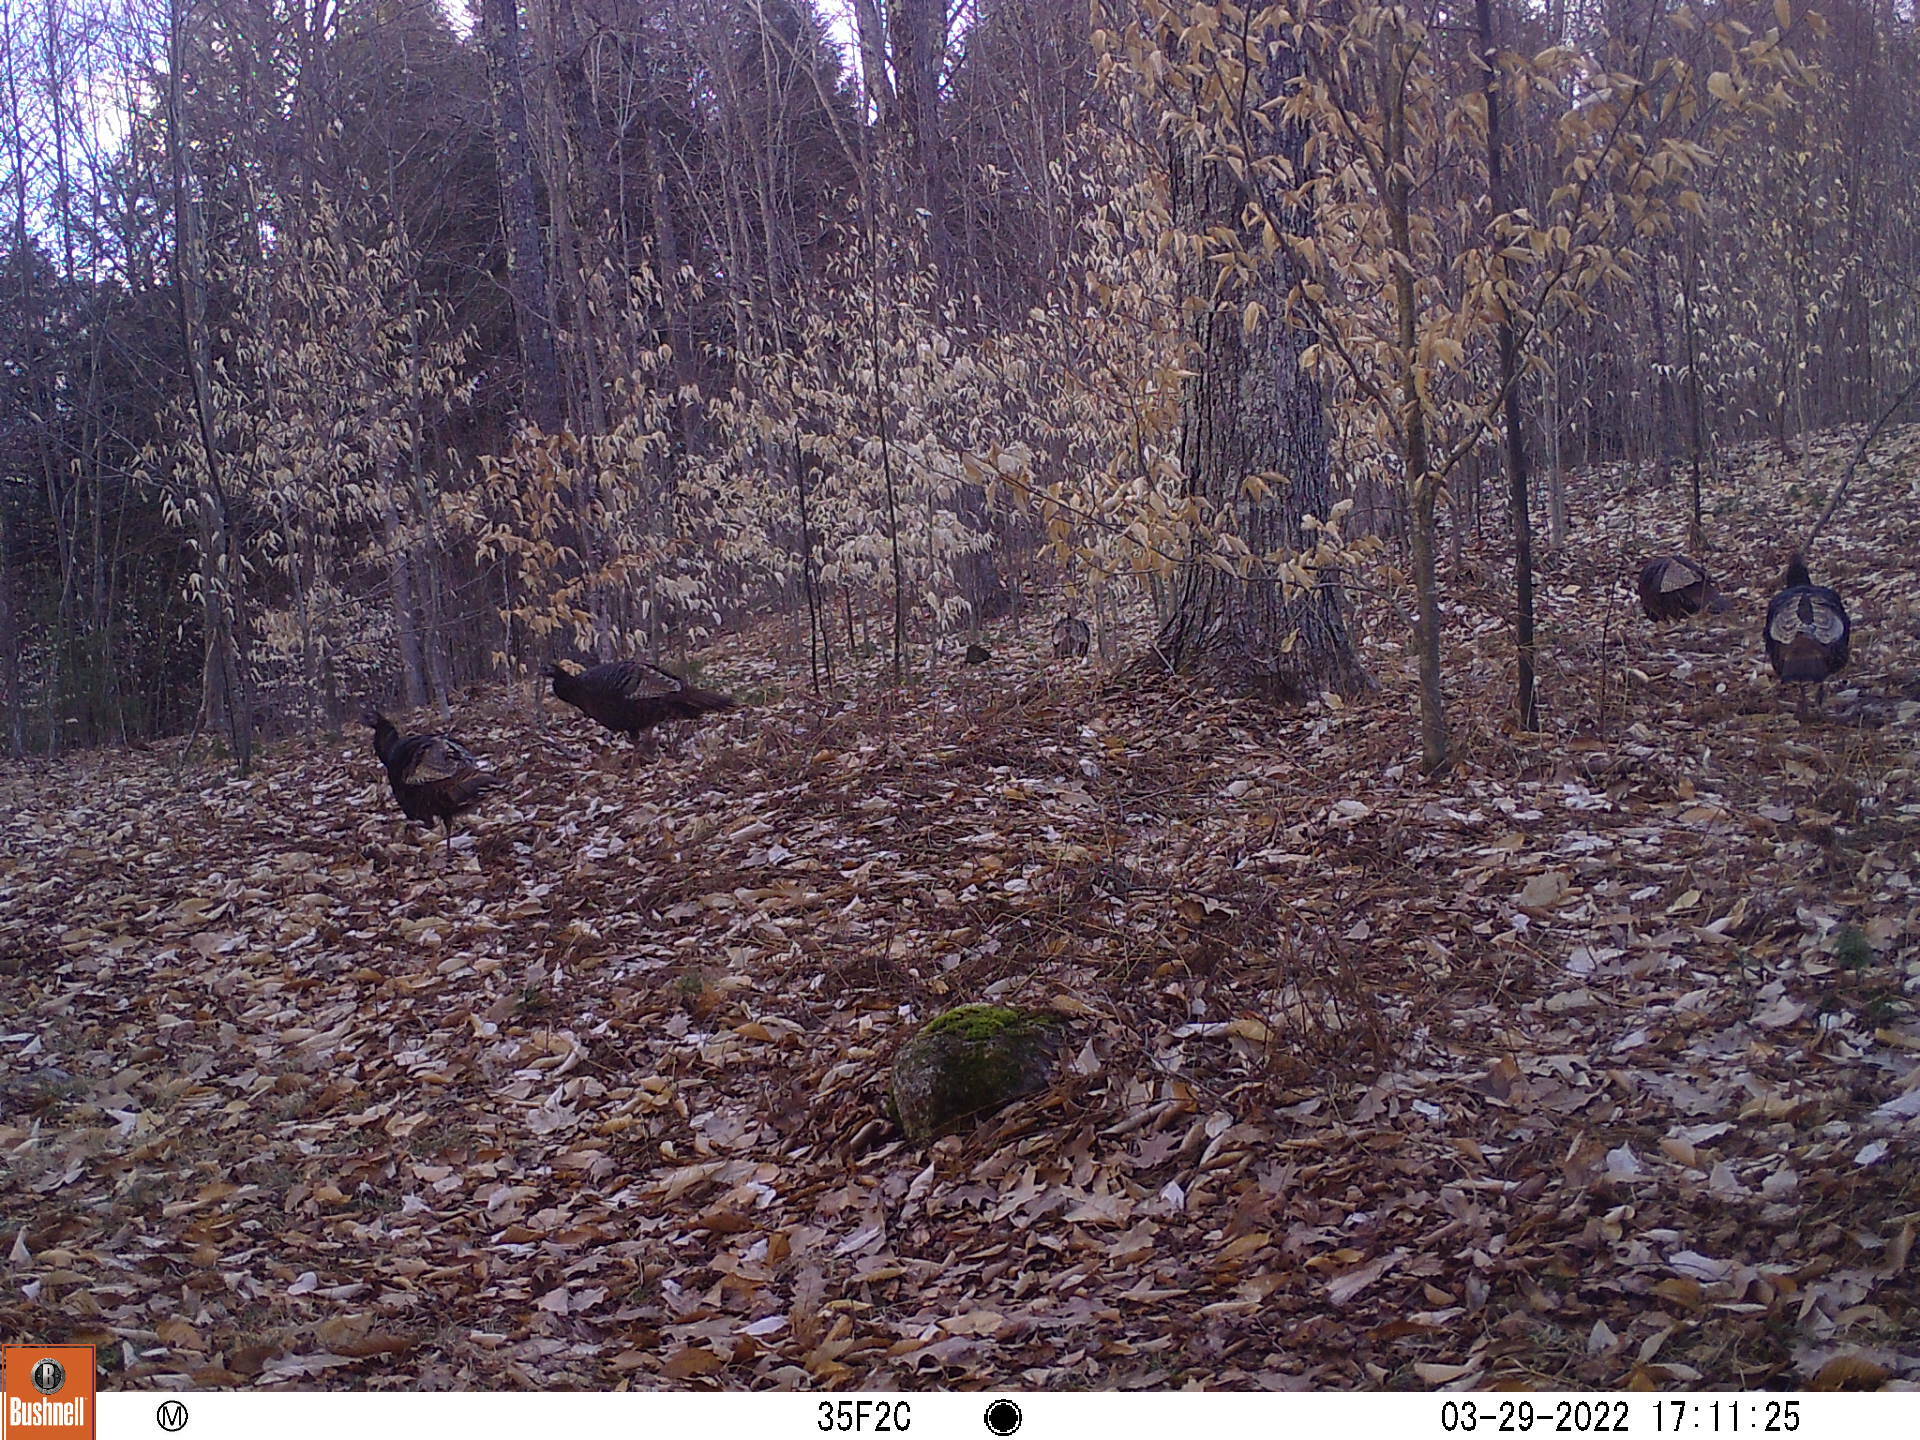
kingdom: Animalia
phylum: Chordata
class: Aves
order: Galliformes
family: Phasianidae
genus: Meleagris
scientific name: Meleagris gallopavo
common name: Wild turkey
